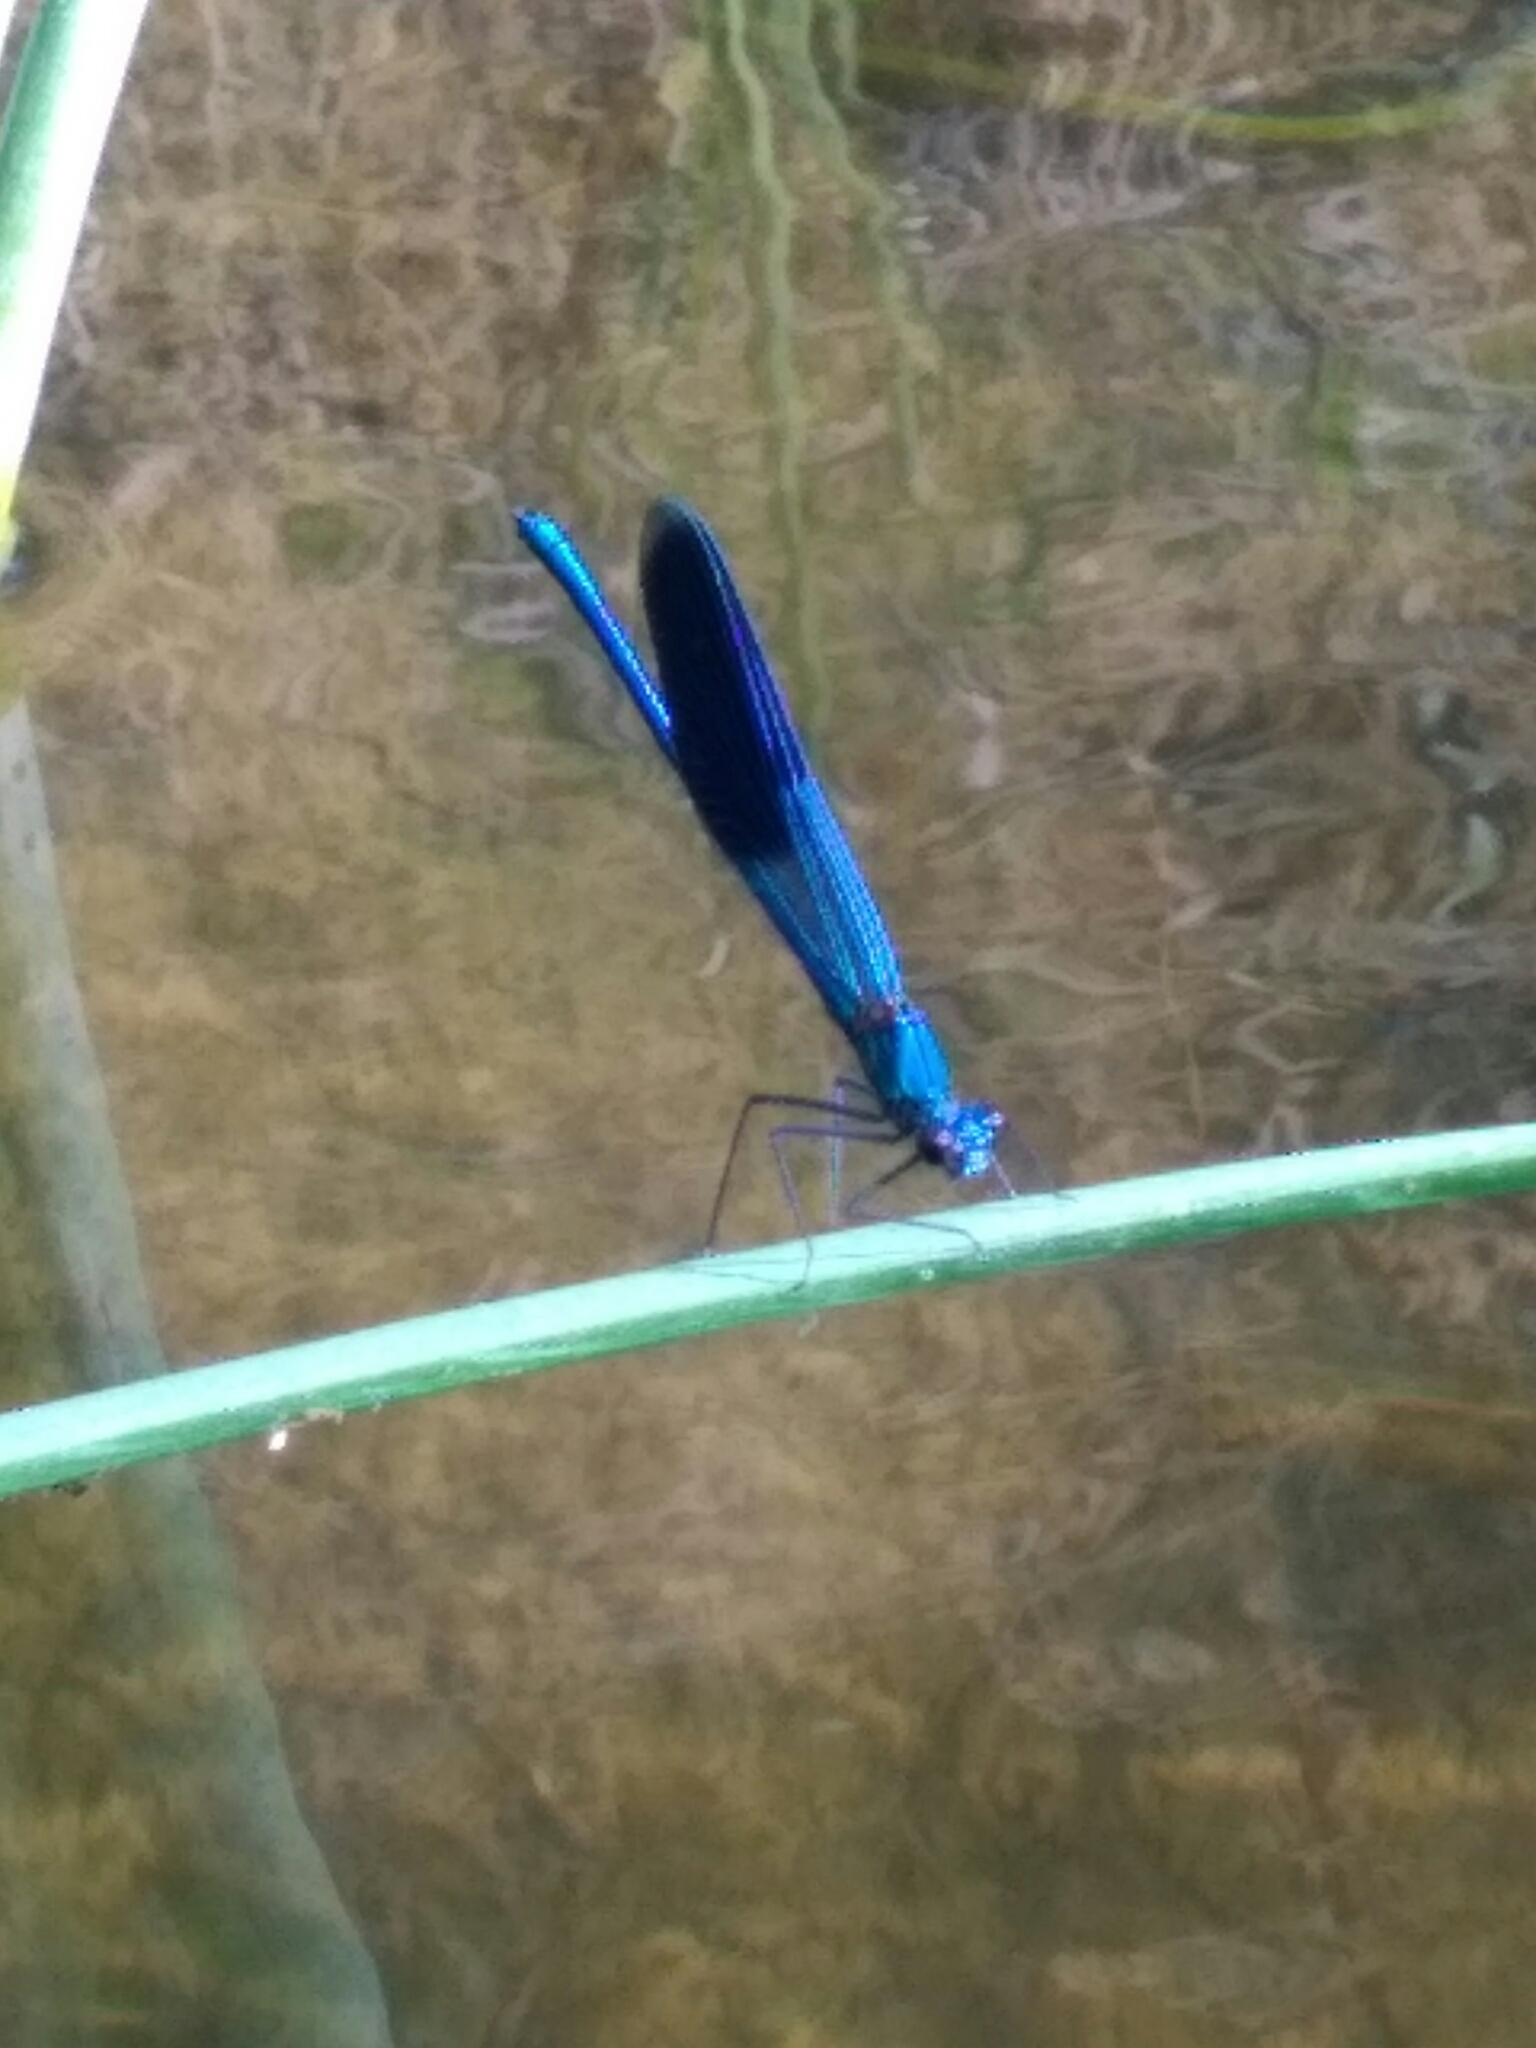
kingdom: Animalia
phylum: Arthropoda
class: Insecta
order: Odonata
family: Calopterygidae
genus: Calopteryx
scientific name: Calopteryx splendens
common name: Banded demoiselle
